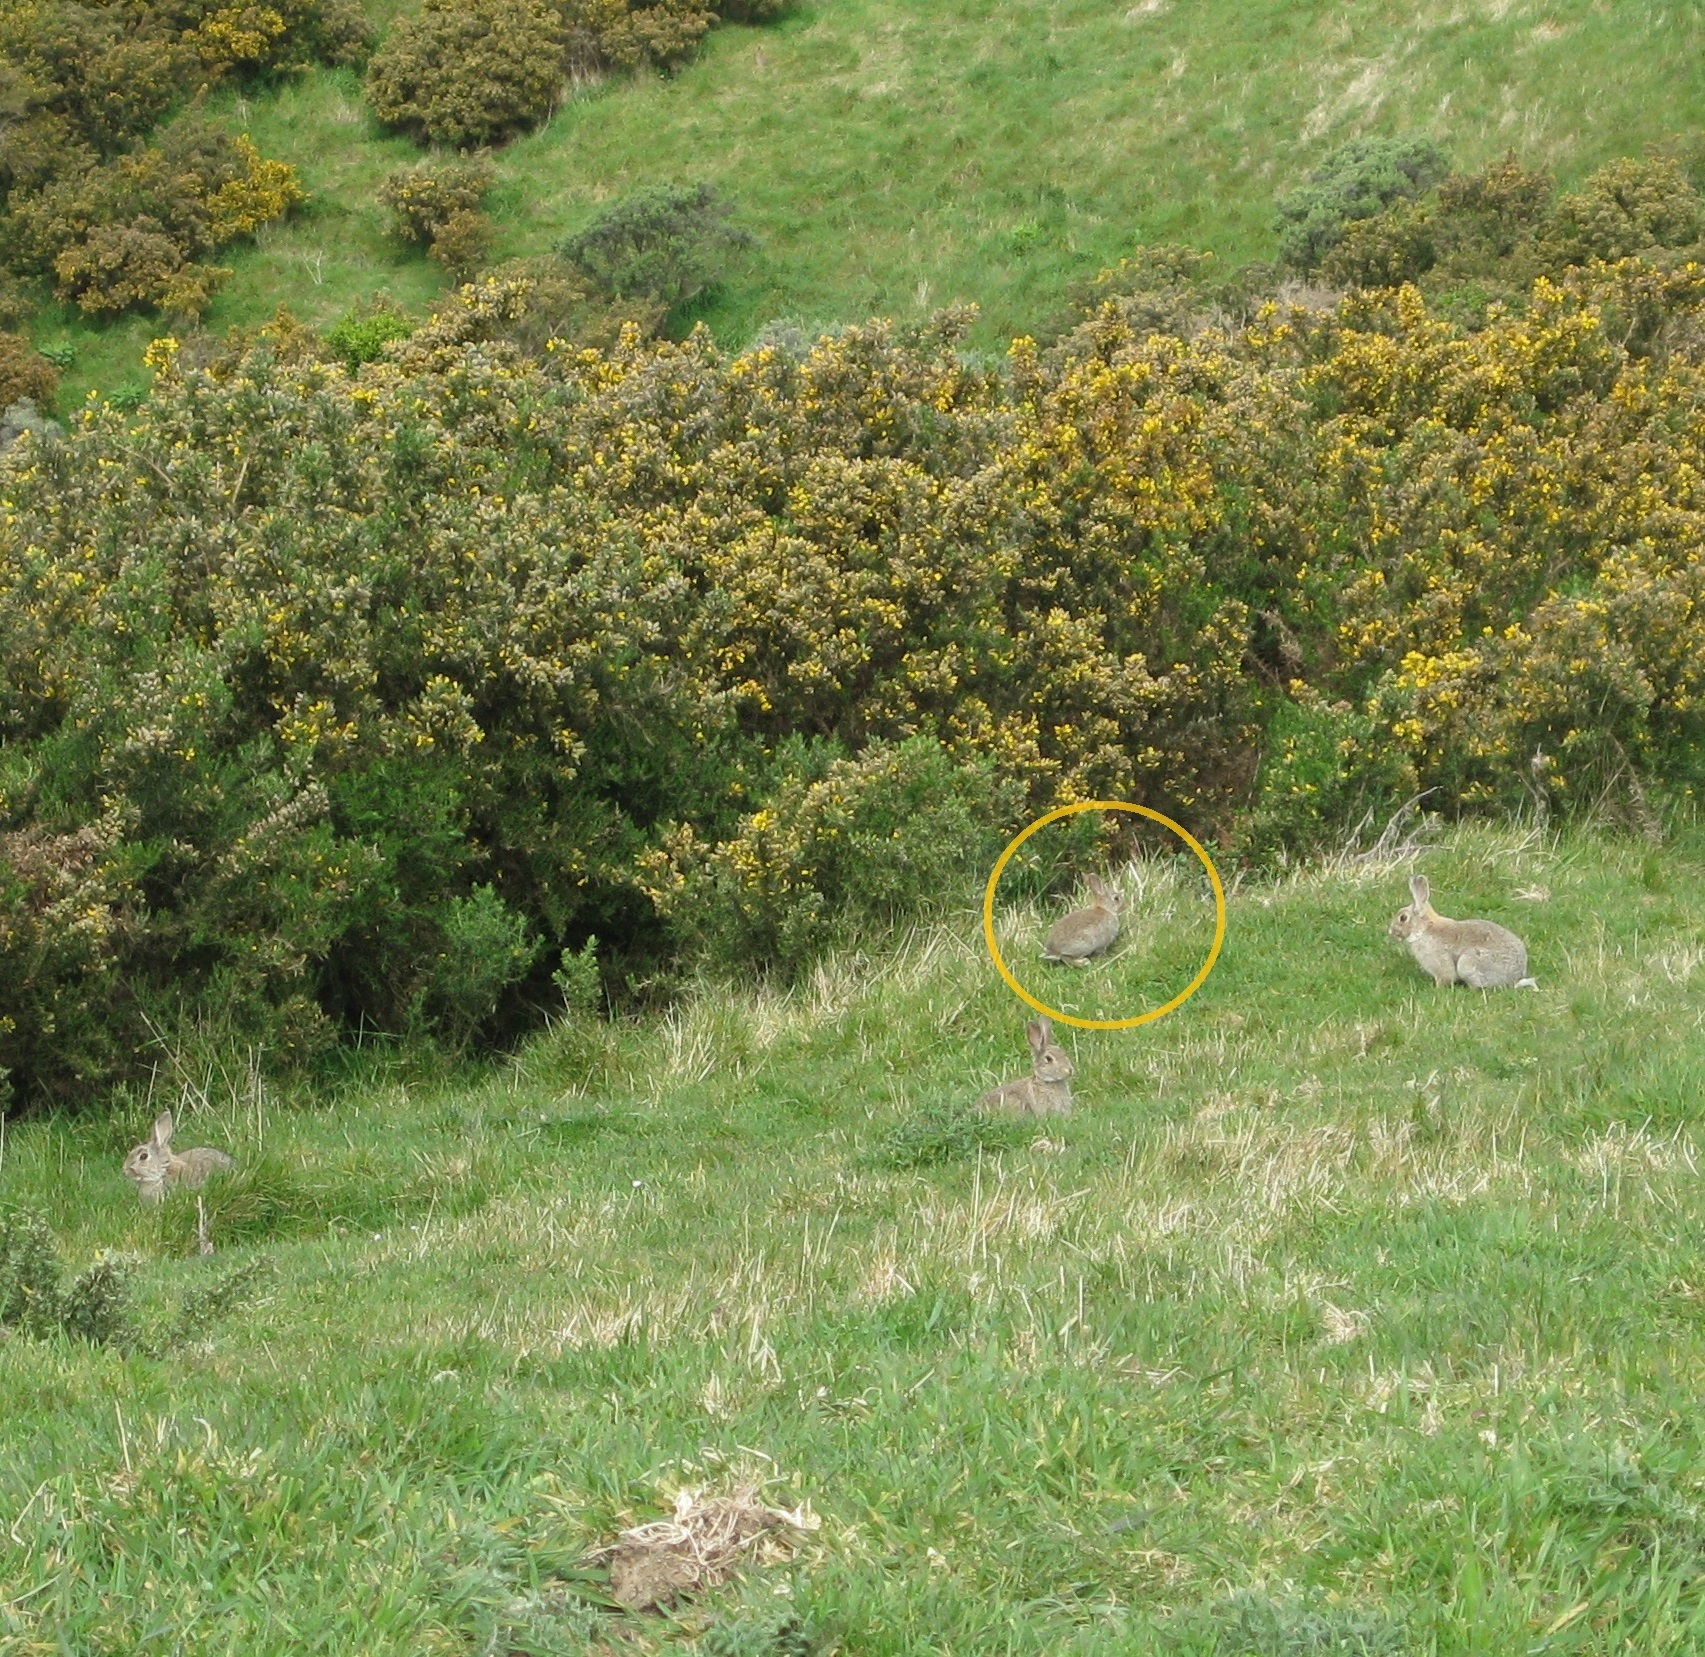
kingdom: Animalia
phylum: Chordata
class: Mammalia
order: Lagomorpha
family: Leporidae
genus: Oryctolagus
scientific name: Oryctolagus cuniculus
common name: European rabbit
